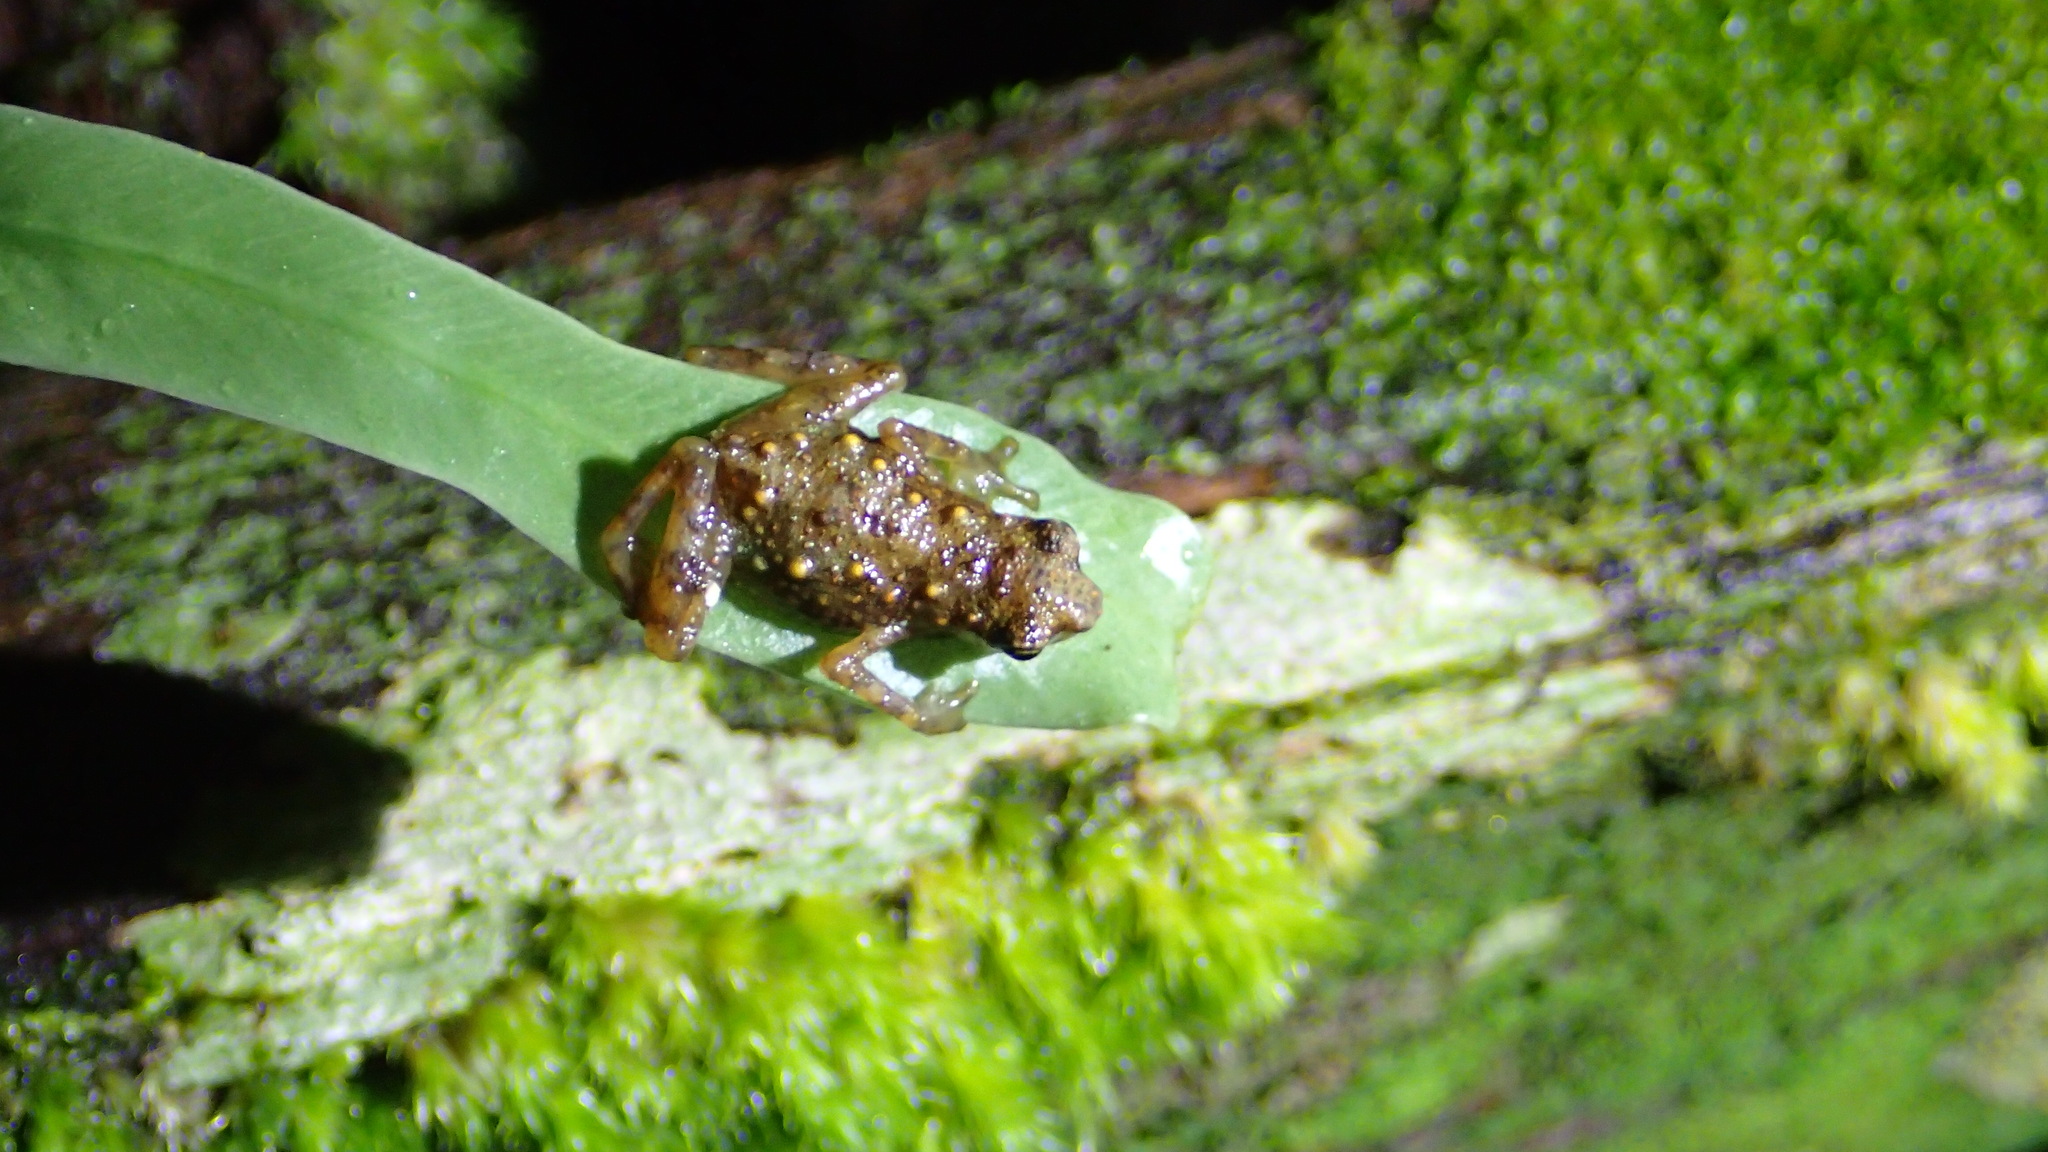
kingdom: Animalia
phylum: Chordata
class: Amphibia
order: Anura
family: Bufonidae
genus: Pelophryne
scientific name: Pelophryne signata
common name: Dwarf toad
